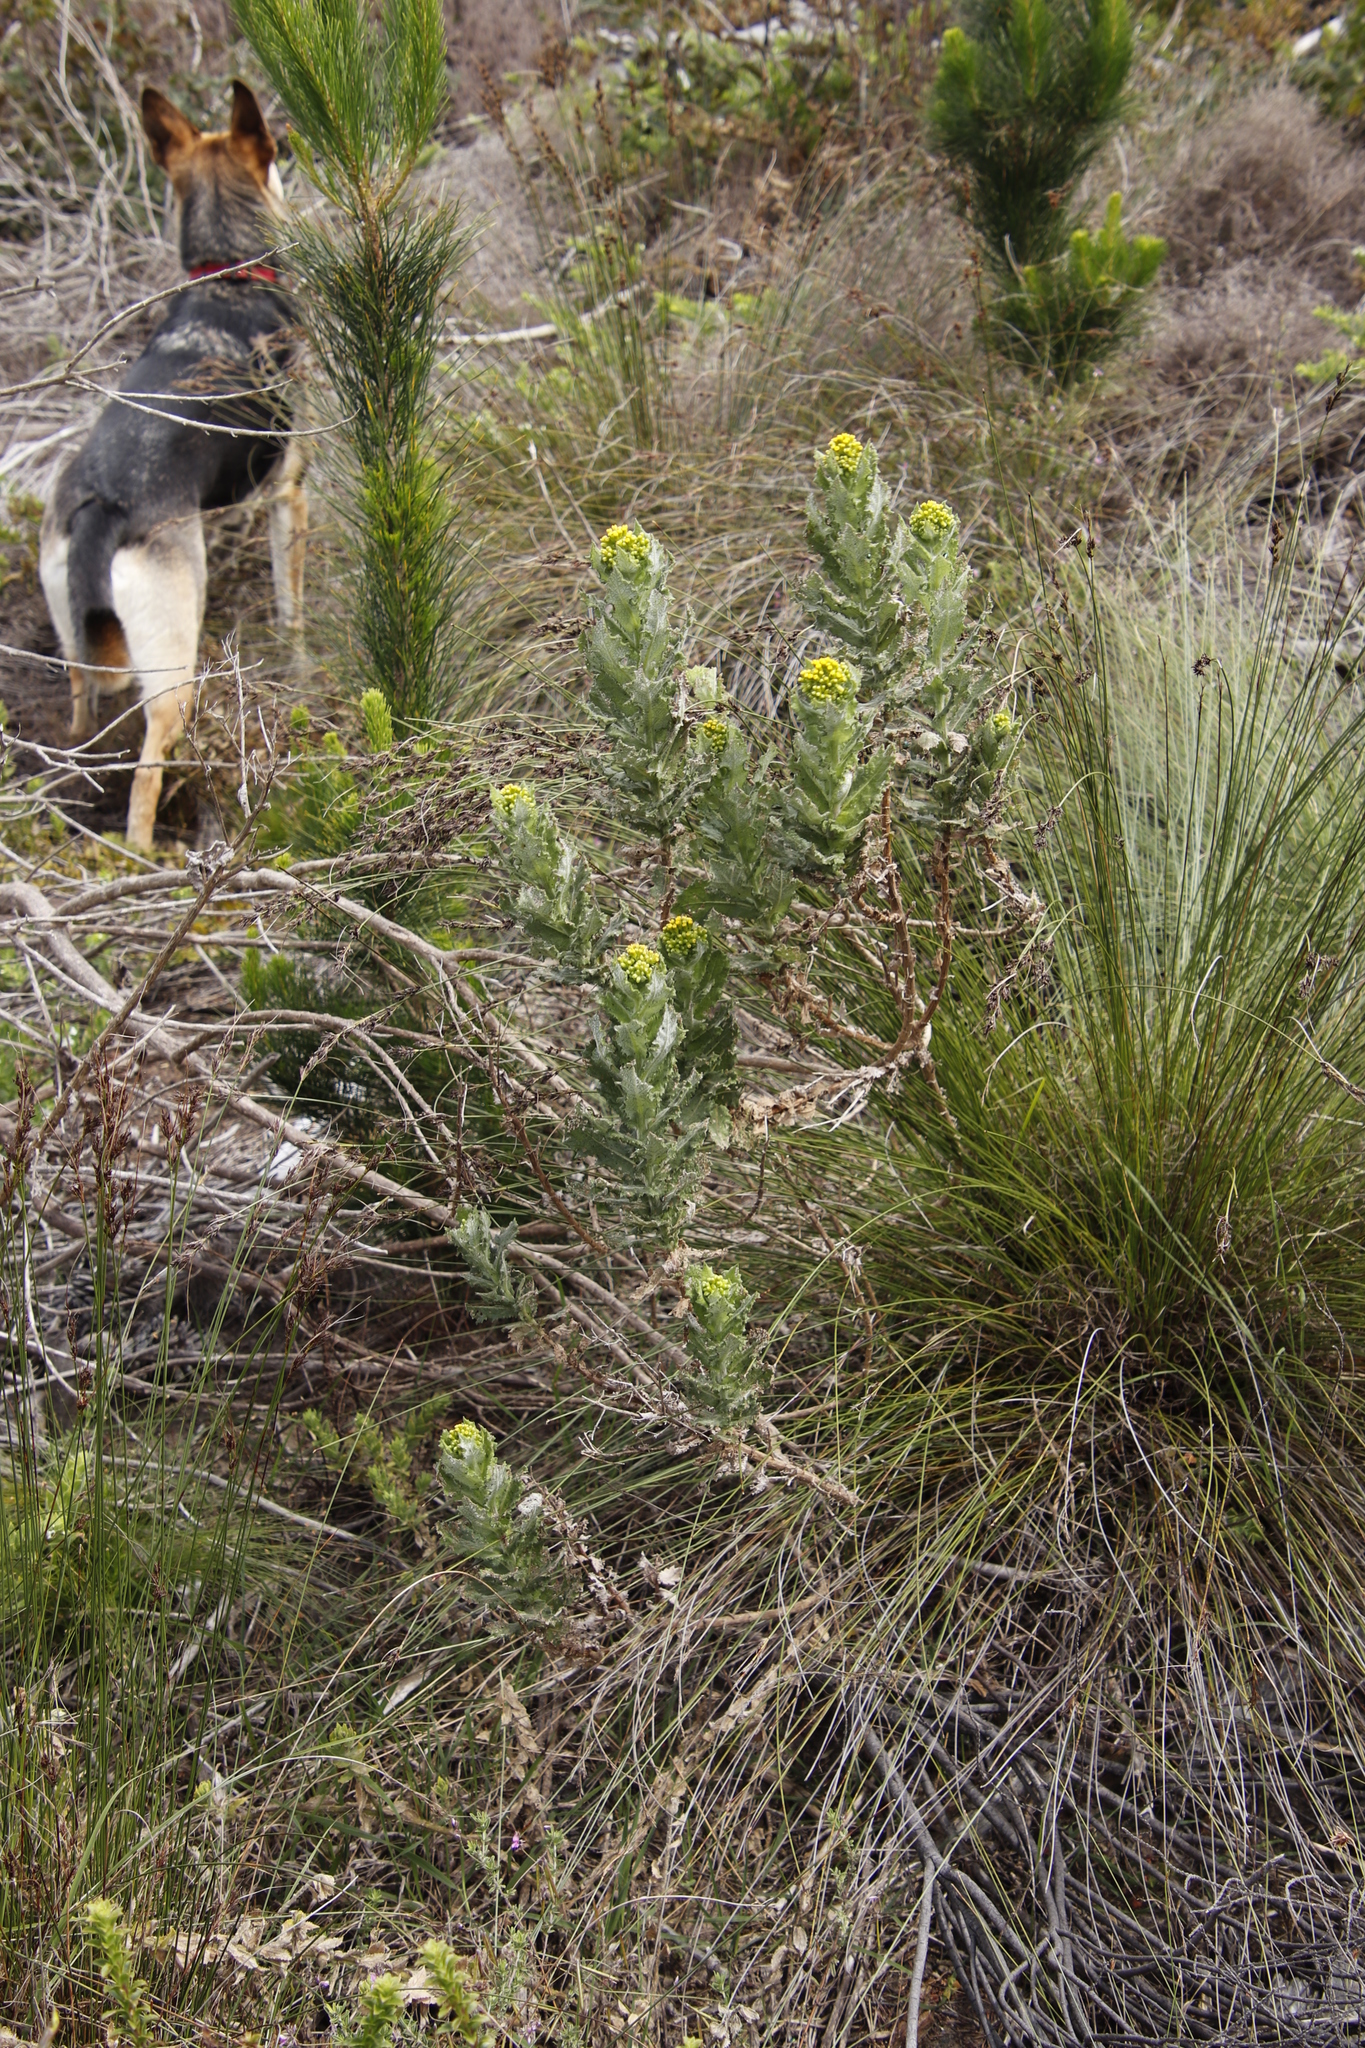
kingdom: Plantae
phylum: Tracheophyta
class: Magnoliopsida
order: Asterales
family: Asteraceae
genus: Senecio
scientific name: Senecio rigidus
